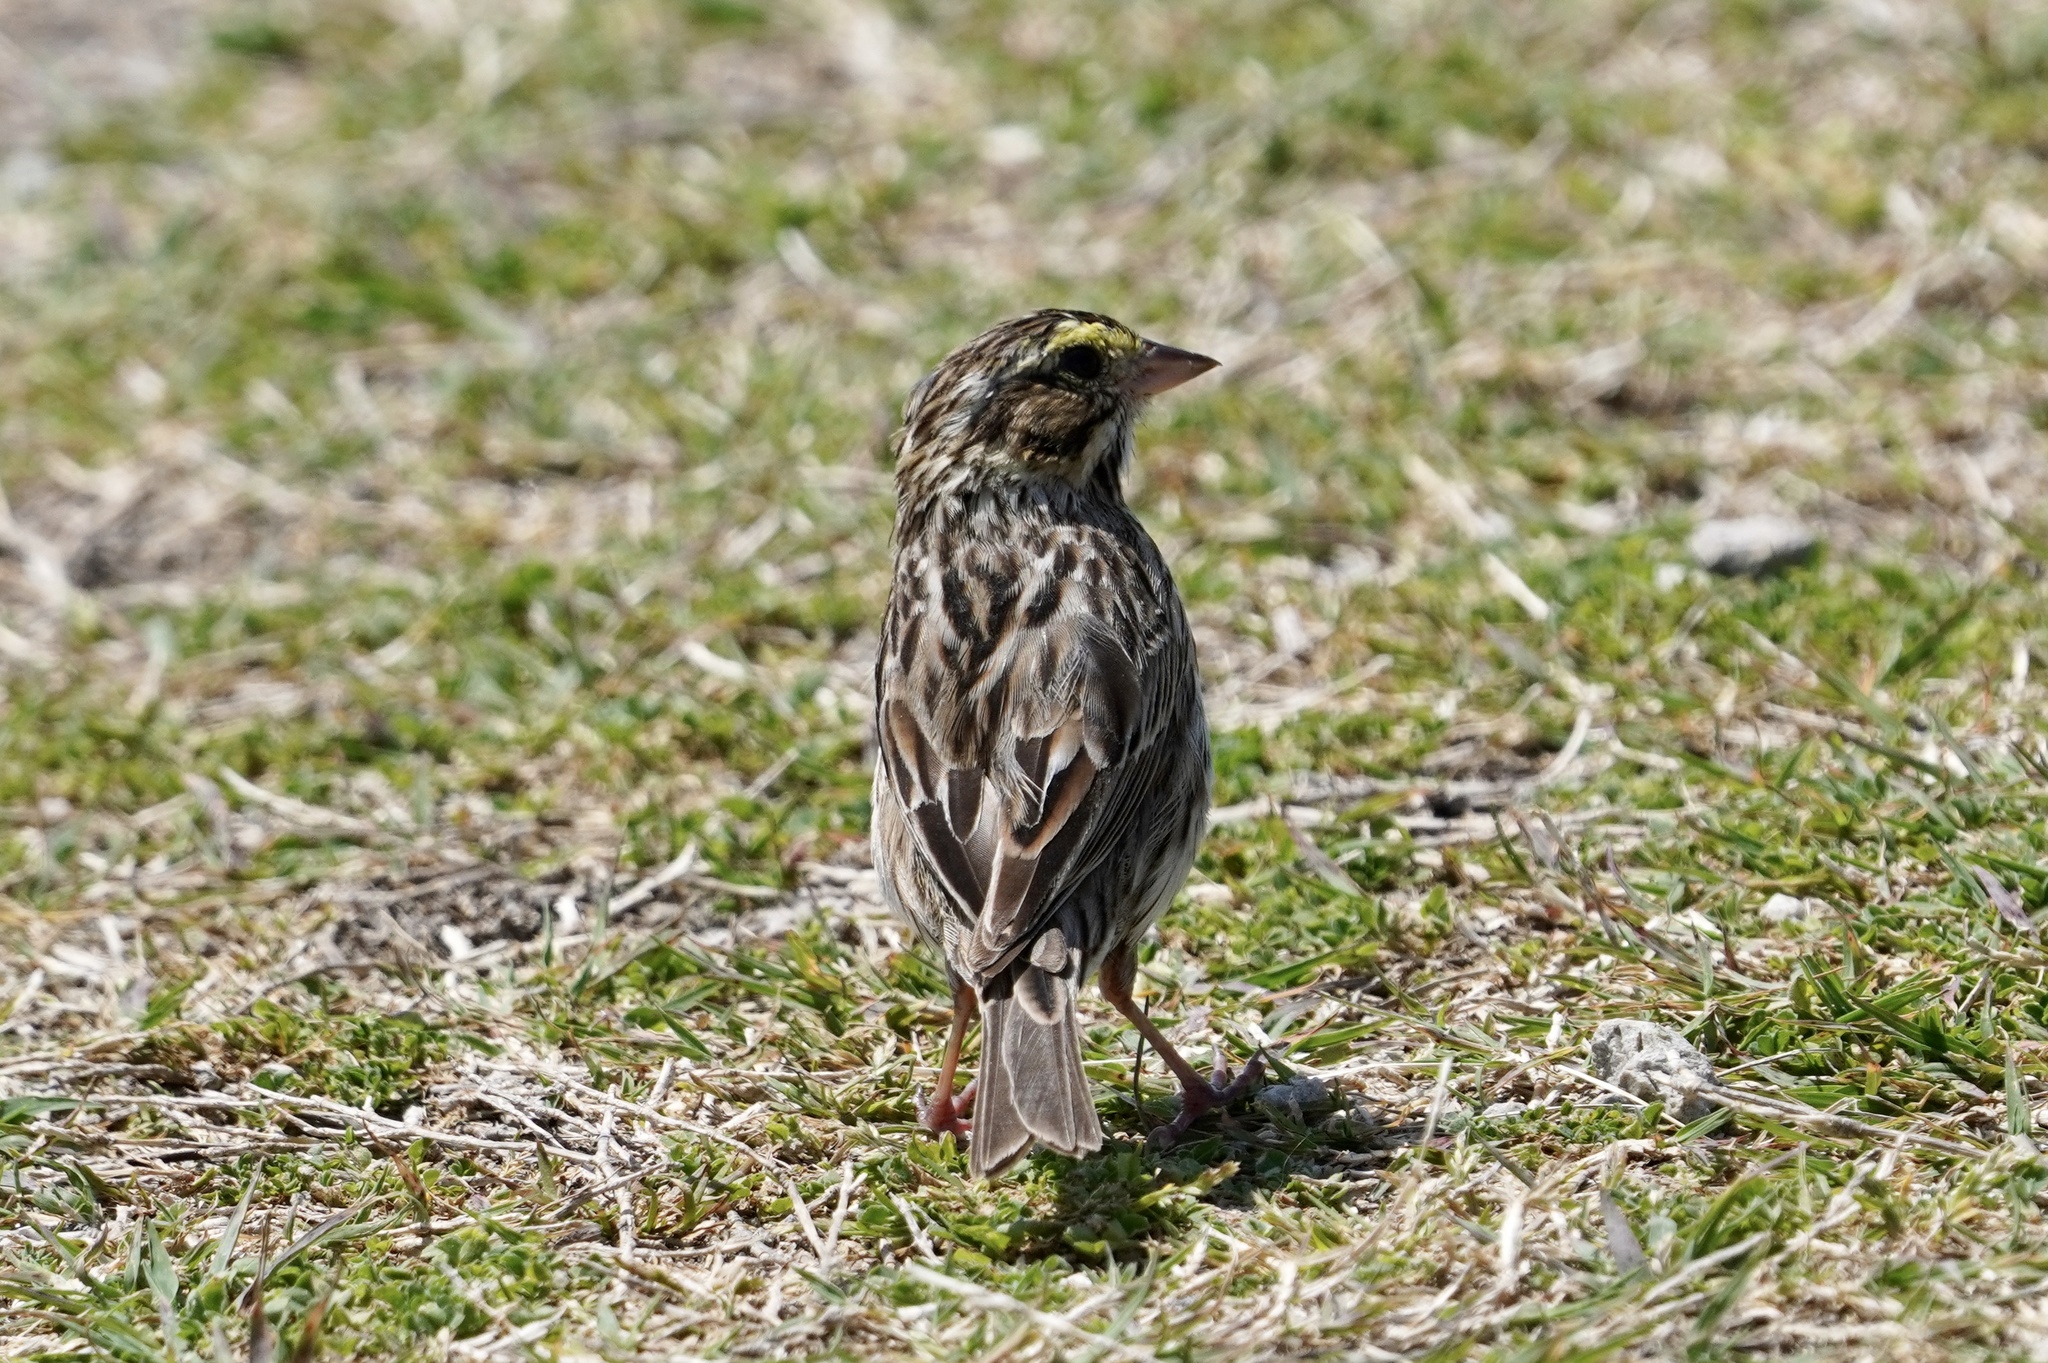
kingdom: Animalia
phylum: Chordata
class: Aves
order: Passeriformes
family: Passerellidae
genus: Passerculus
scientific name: Passerculus sandwichensis
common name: Savannah sparrow
